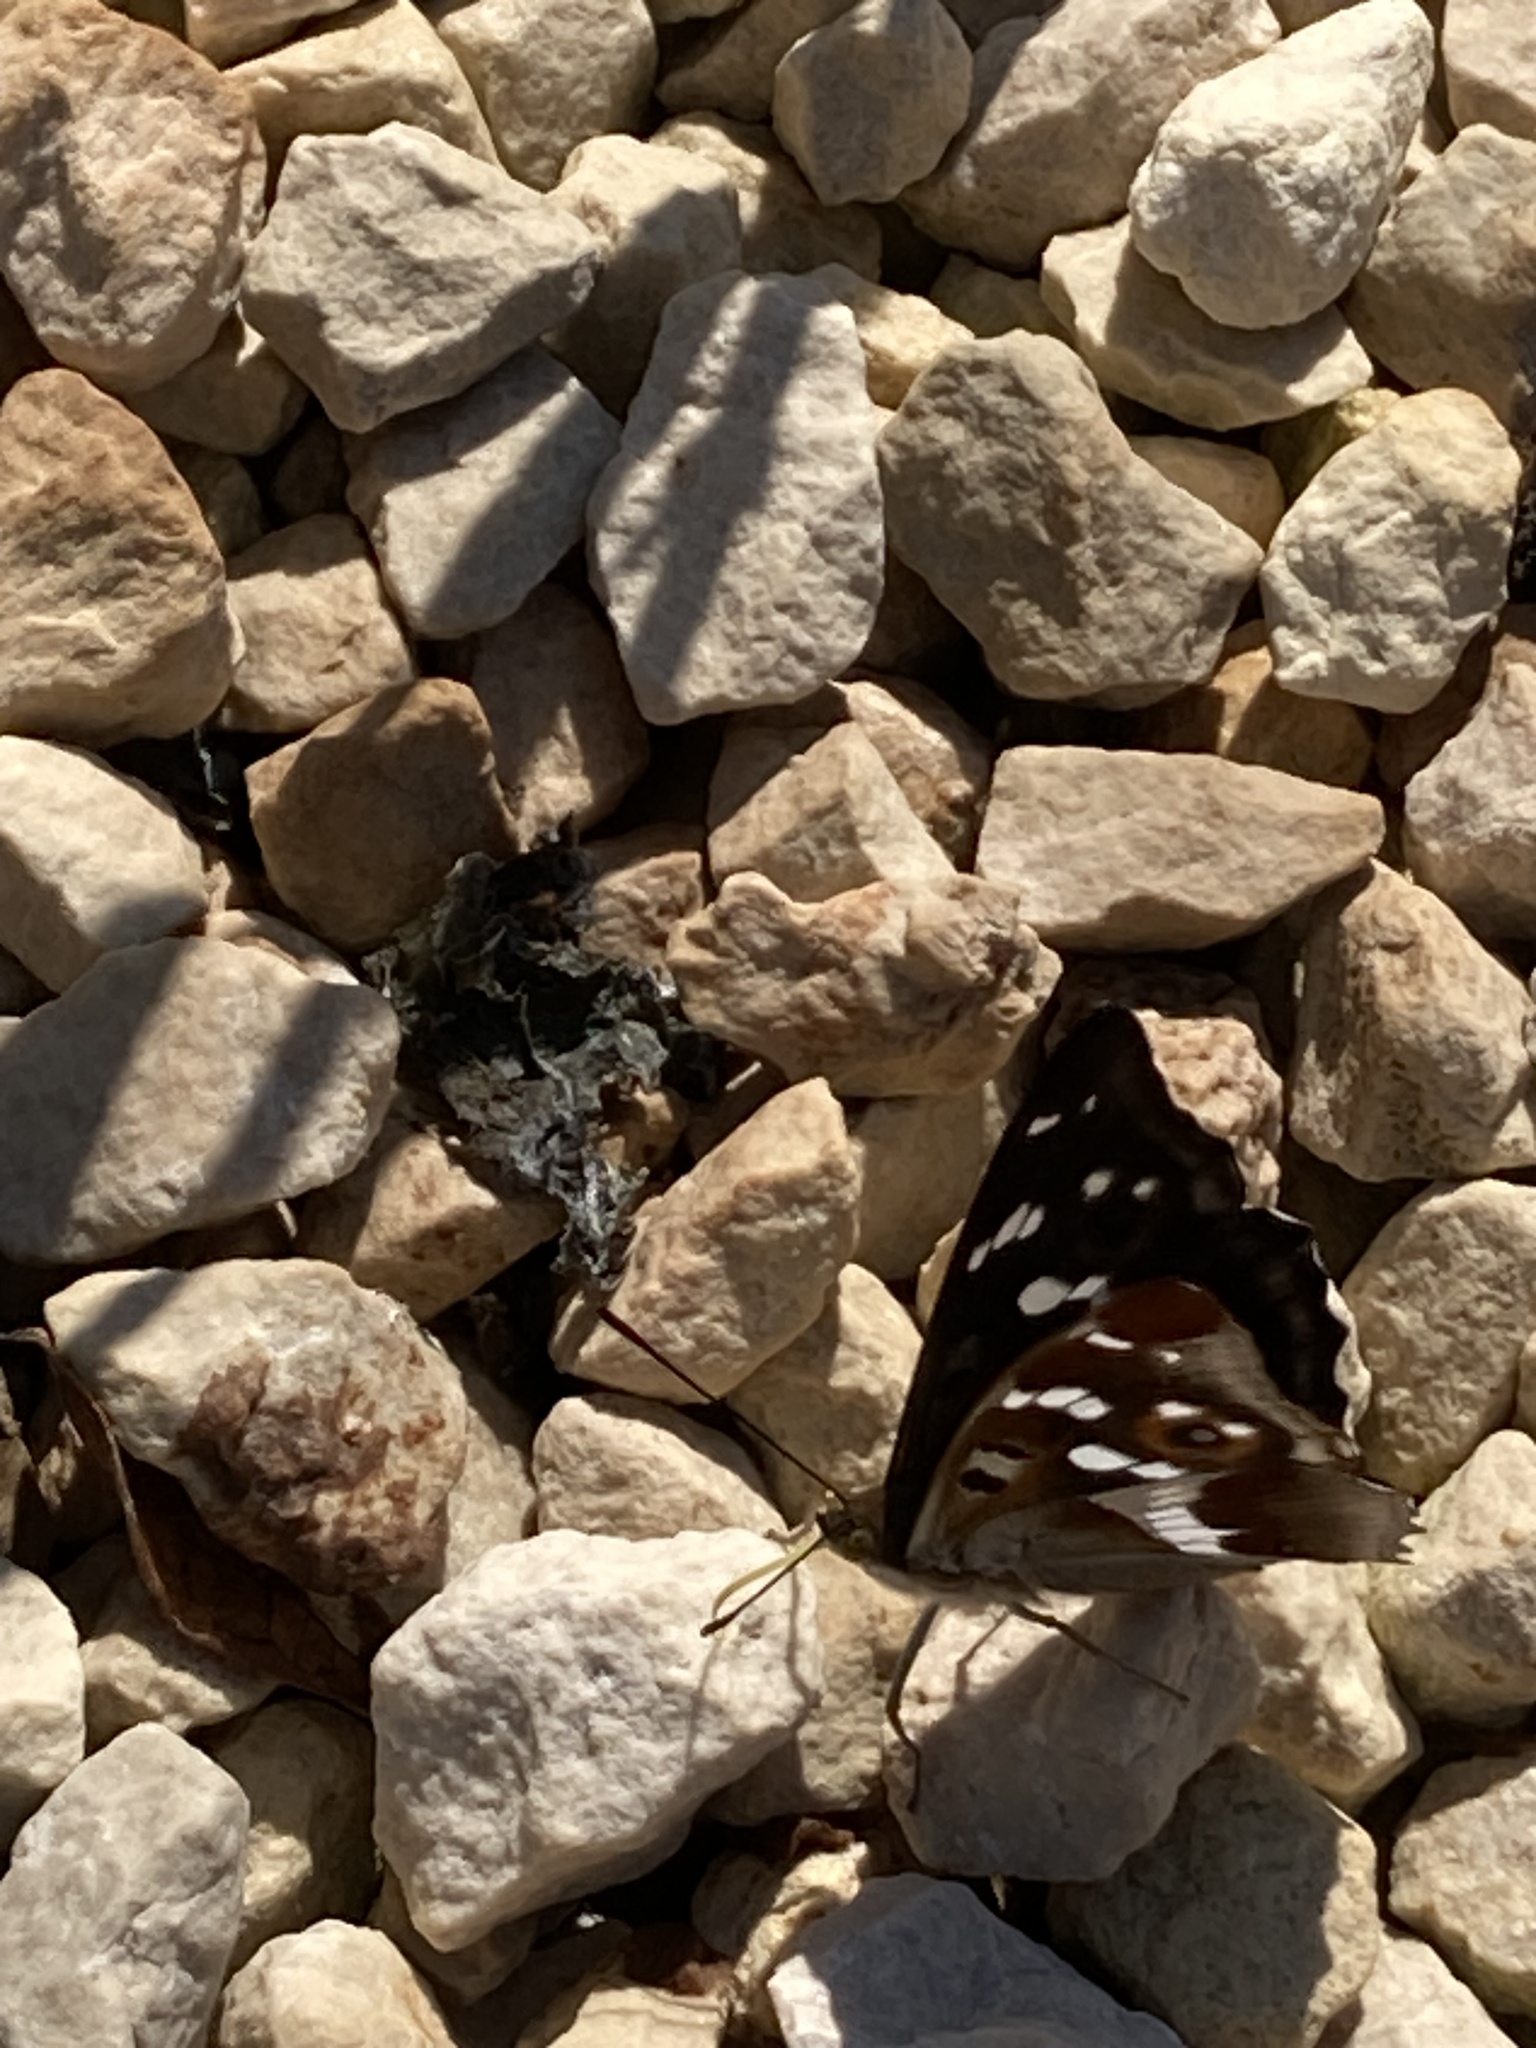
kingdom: Animalia
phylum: Arthropoda
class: Insecta
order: Lepidoptera
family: Nymphalidae
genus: Apatura
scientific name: Apatura iris
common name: Purple emperor
